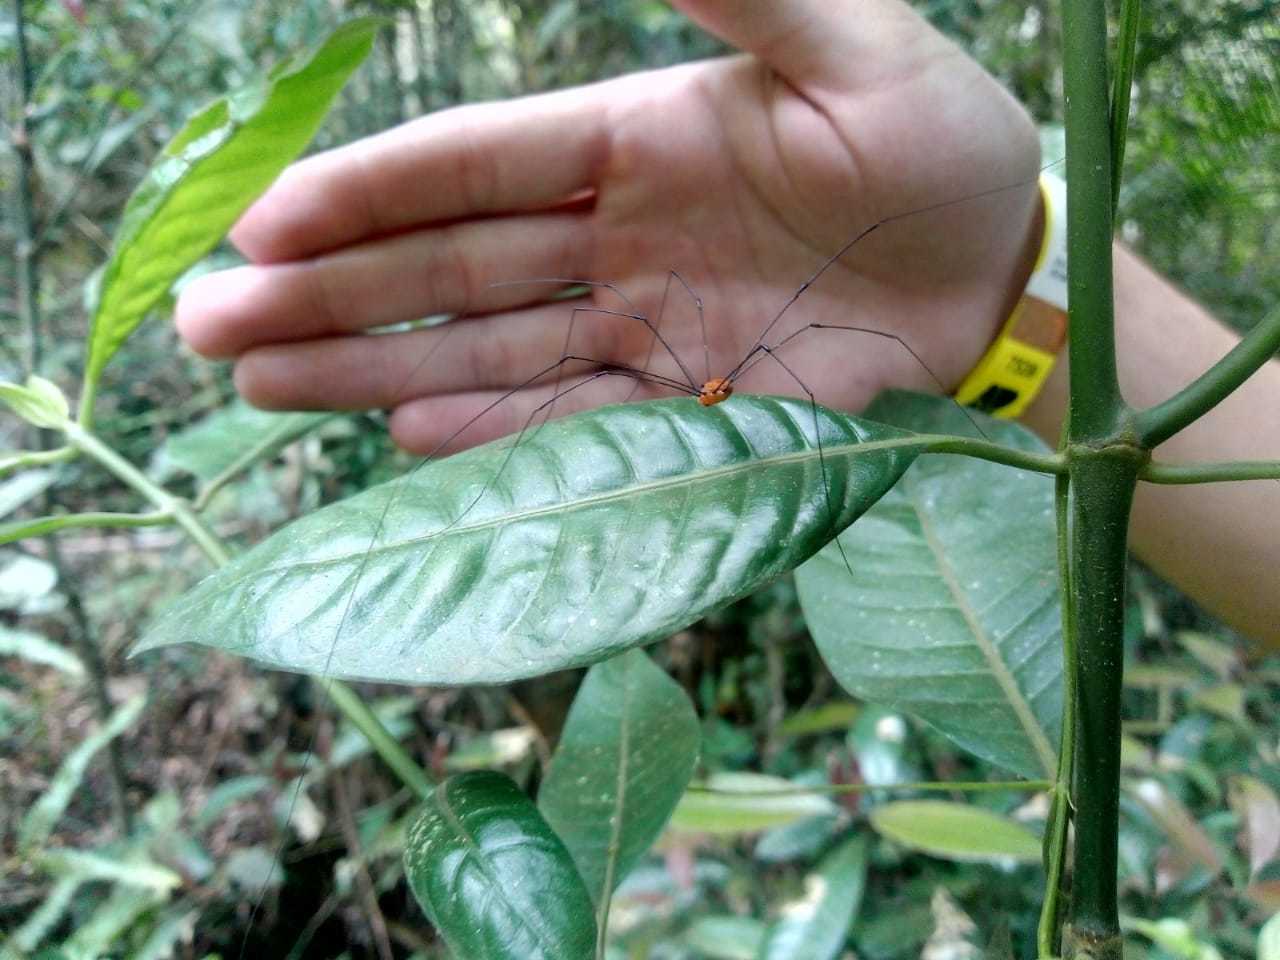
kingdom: Animalia
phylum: Arthropoda
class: Arachnida
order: Opiliones
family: Sclerosomatidae
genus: Abaetetuba
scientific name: Abaetetuba citrina
